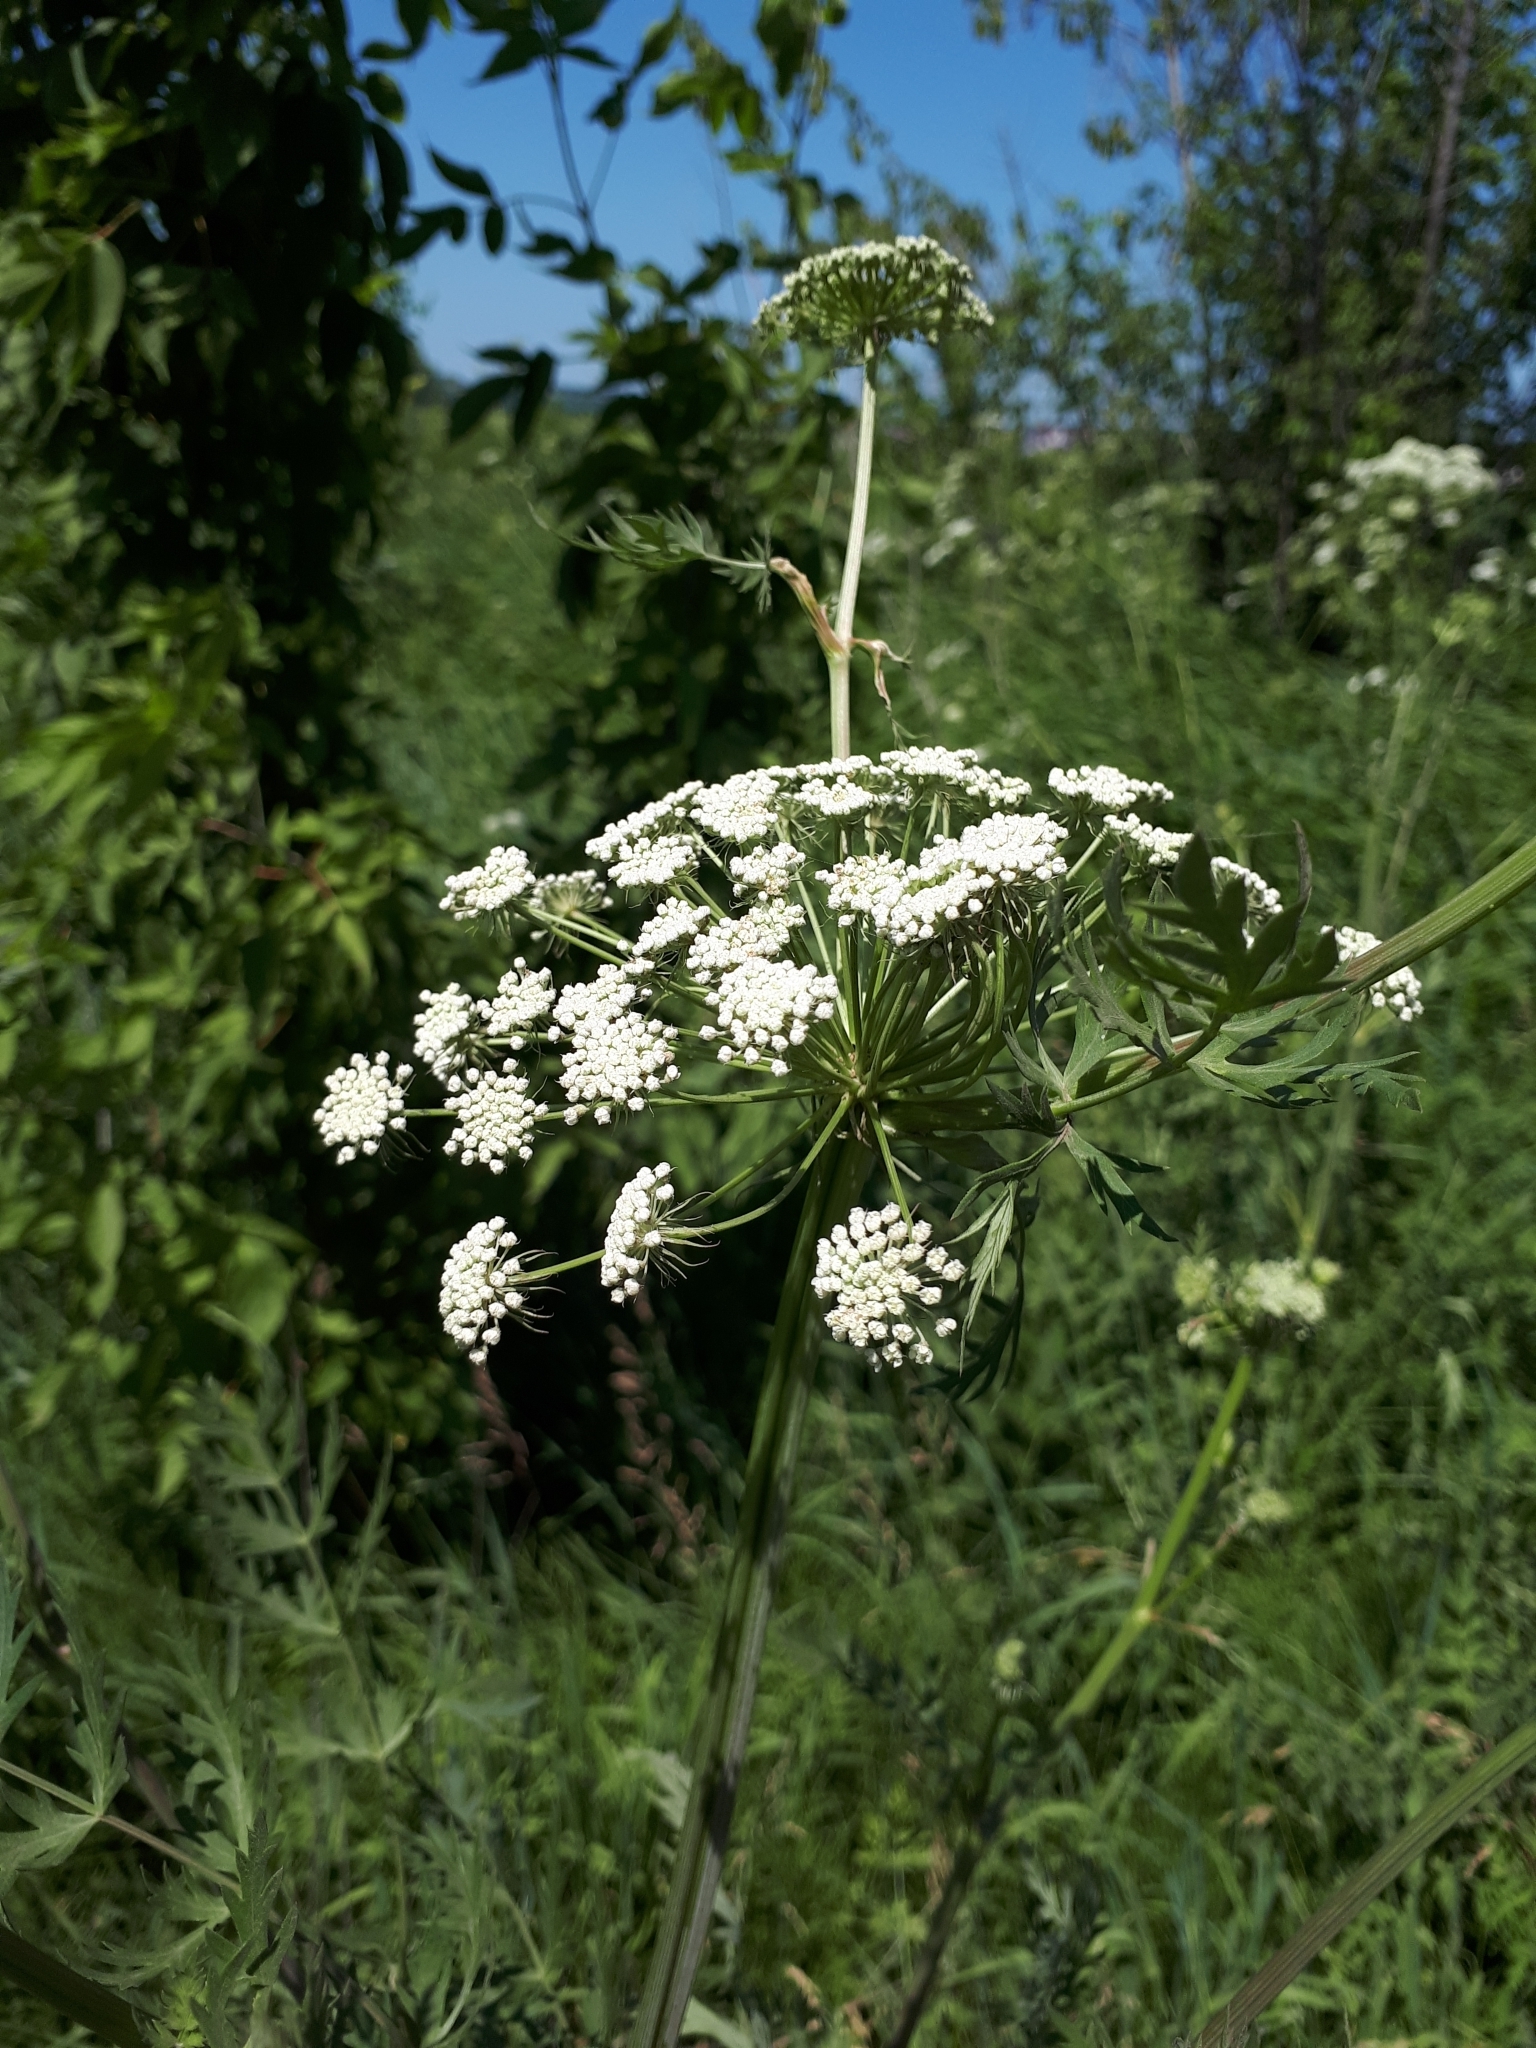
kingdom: Plantae
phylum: Tracheophyta
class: Magnoliopsida
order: Apiales
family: Apiaceae
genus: Seseli
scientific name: Seseli libanotis
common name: Mooncarrot
